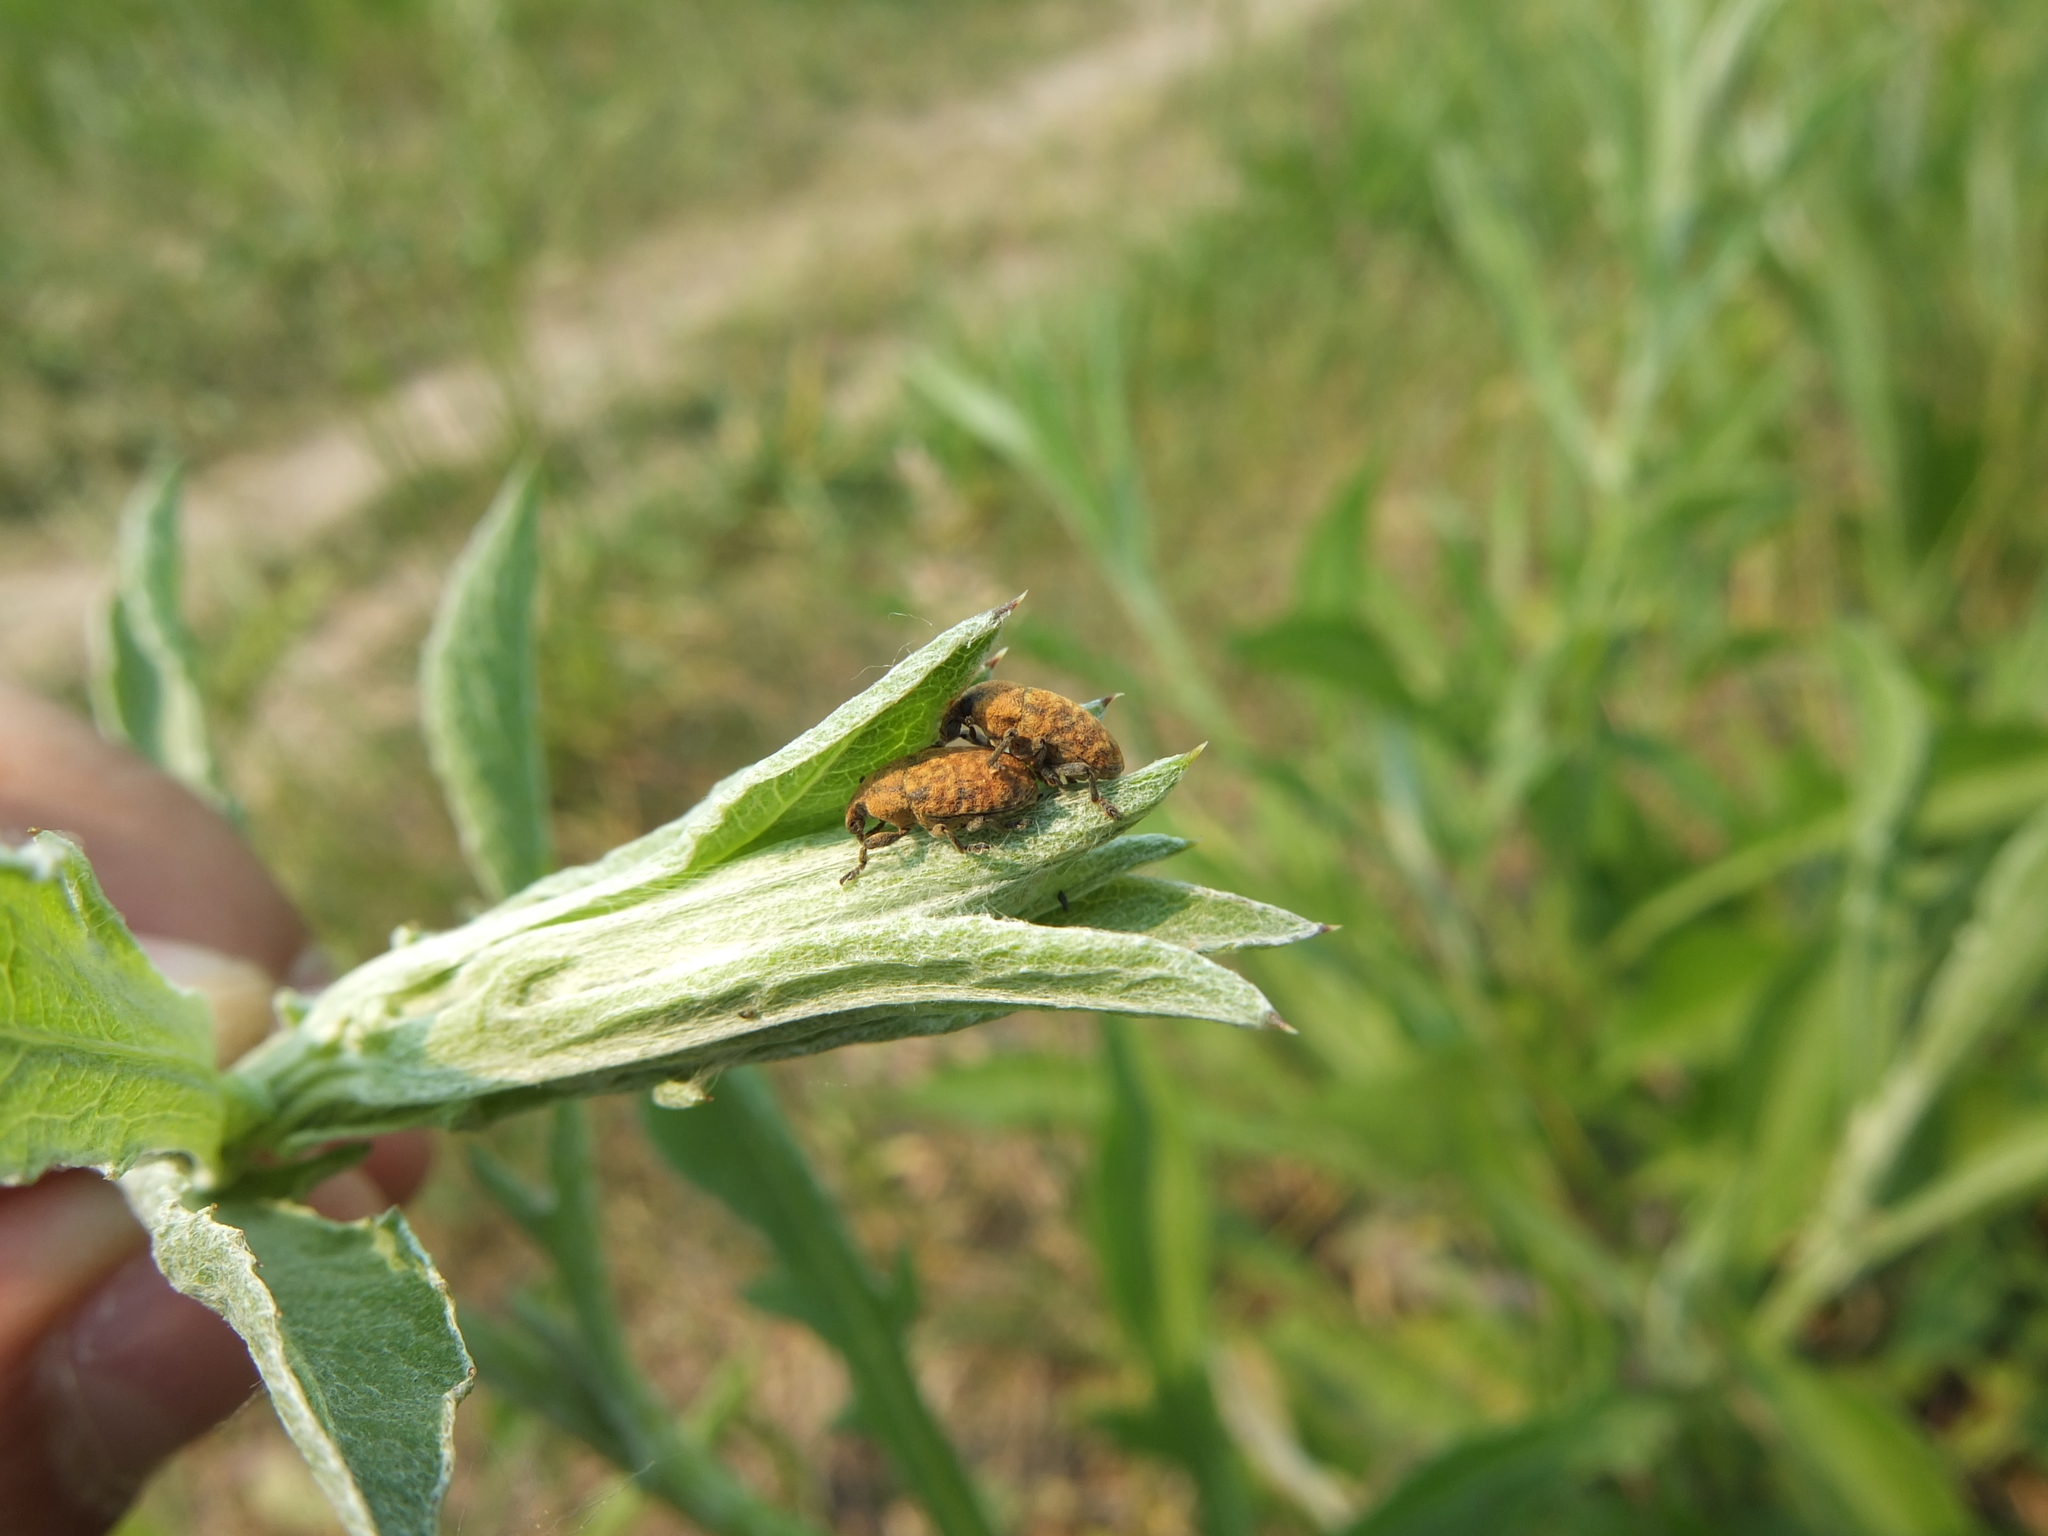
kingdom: Animalia
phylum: Arthropoda
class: Insecta
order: Coleoptera
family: Curculionidae
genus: Larinus
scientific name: Larinus obtusus
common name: Weevil
